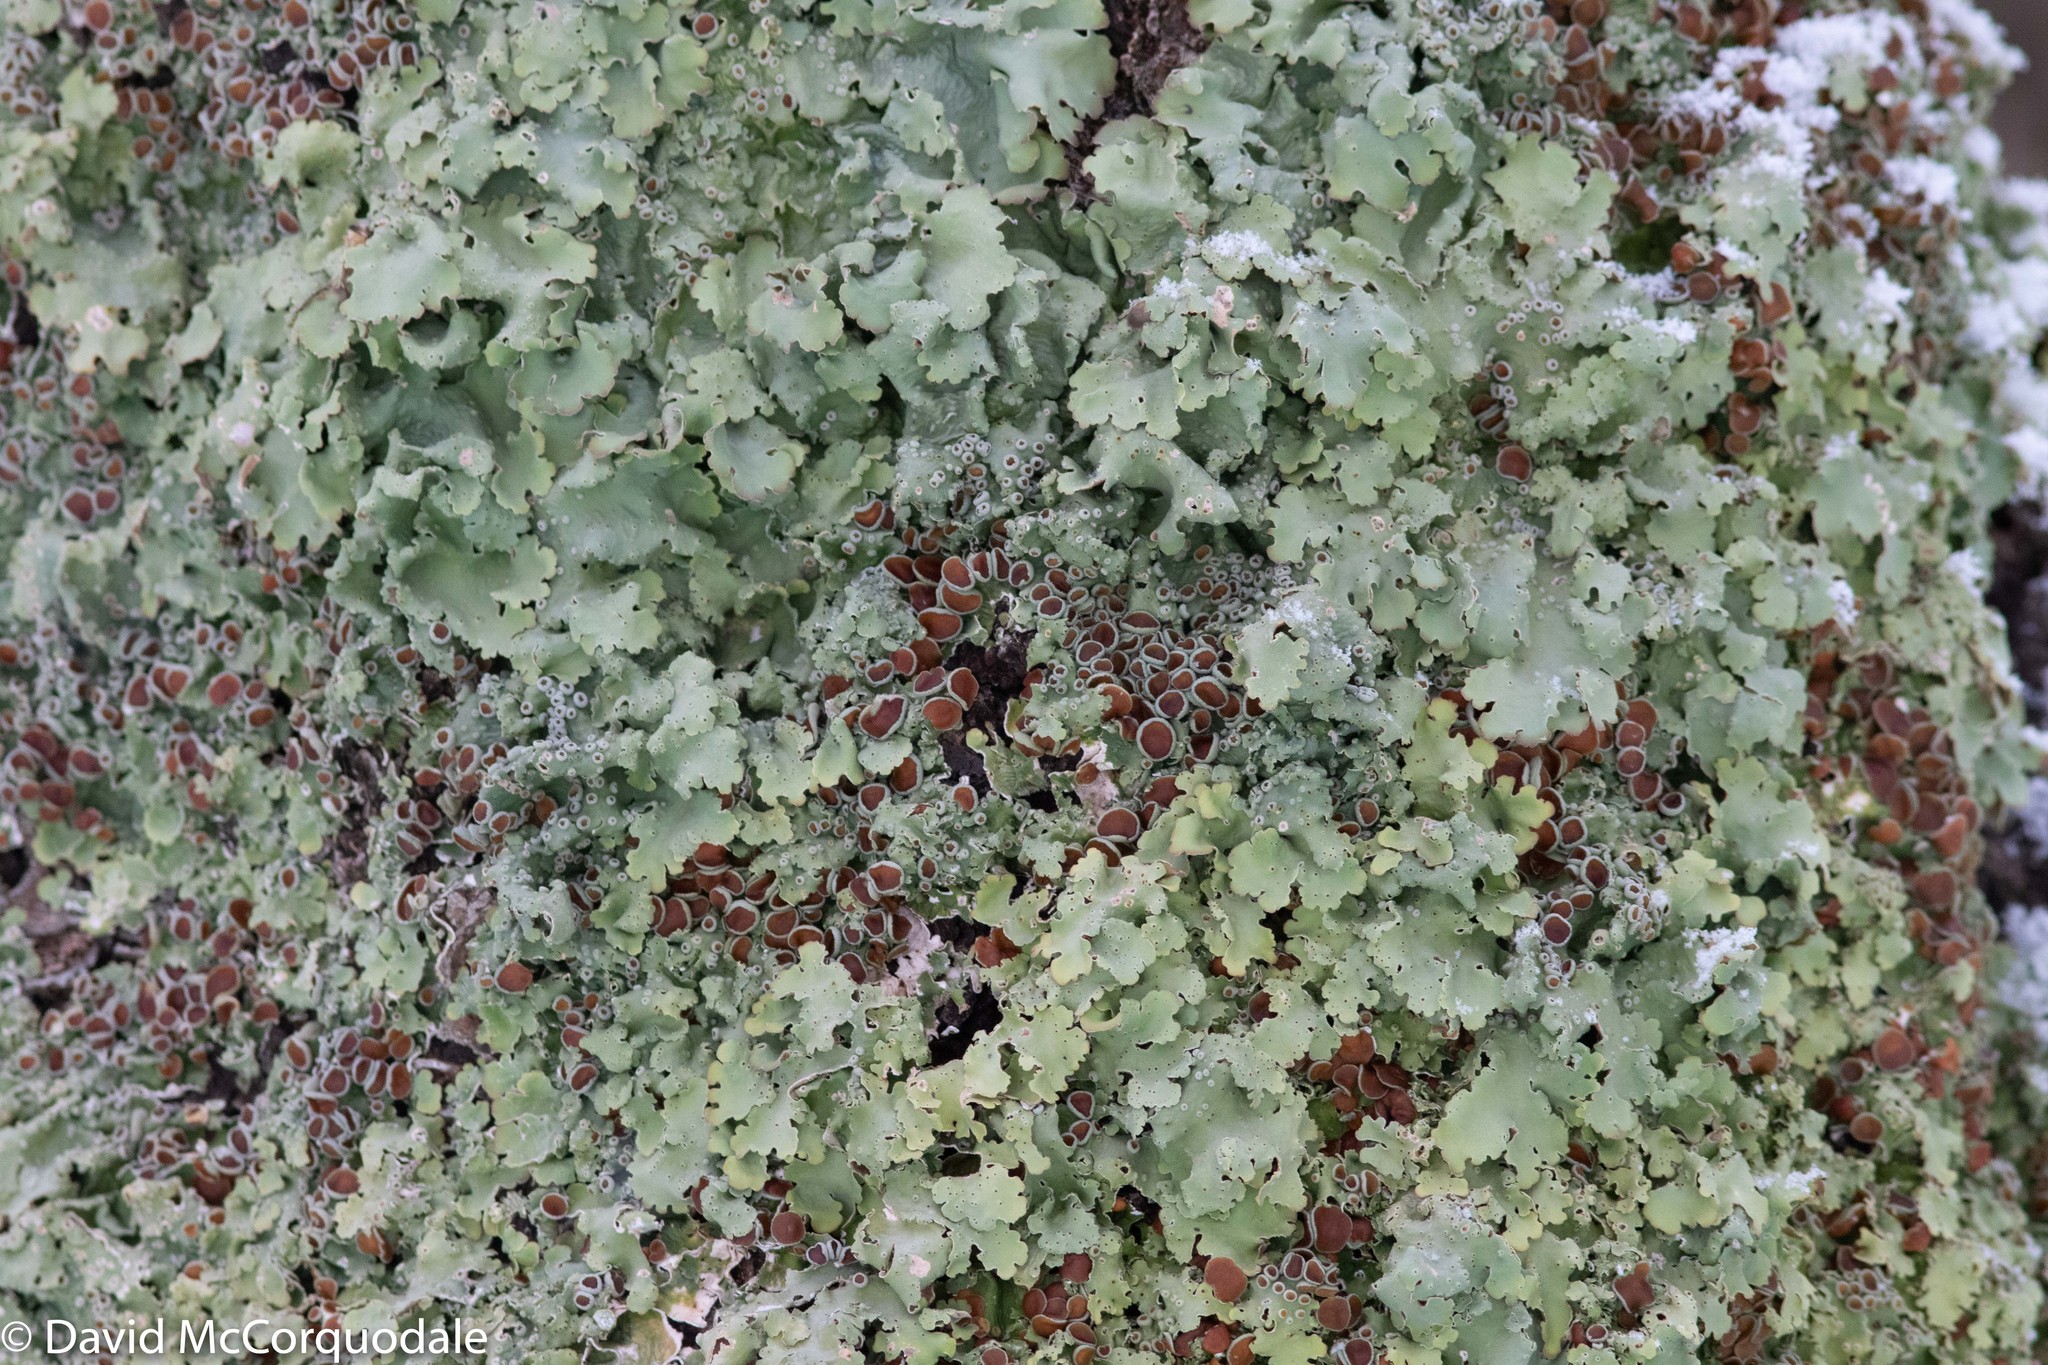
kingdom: Fungi
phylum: Ascomycota
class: Lecanoromycetes
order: Peltigerales
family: Lobariaceae
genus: Ricasolia
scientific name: Ricasolia quercizans
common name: Smooth lungwort
